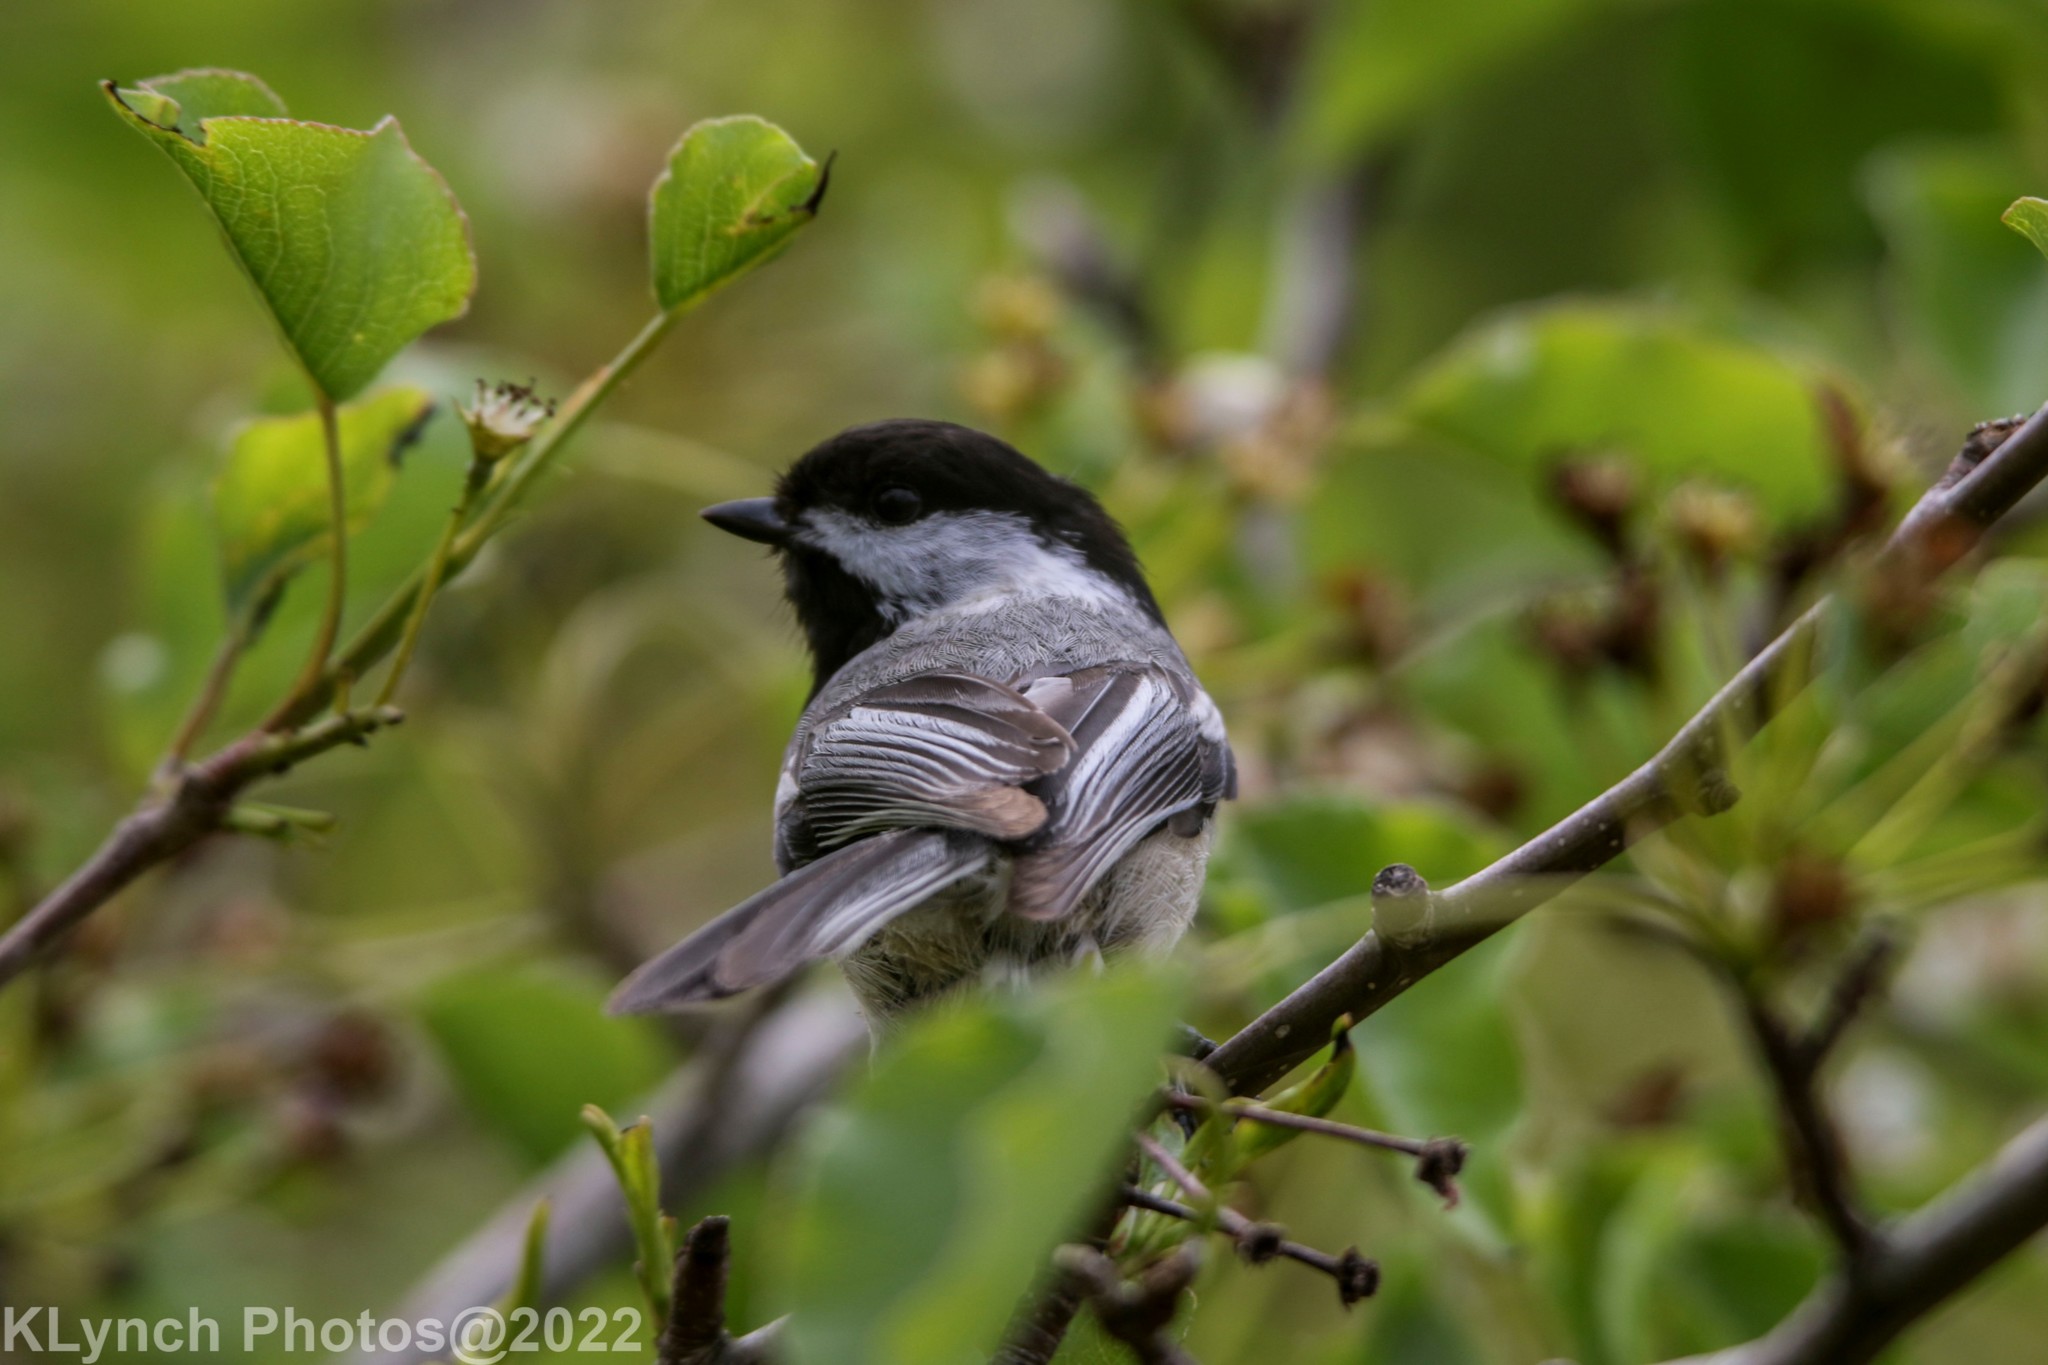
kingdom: Animalia
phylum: Chordata
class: Aves
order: Passeriformes
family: Paridae
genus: Poecile
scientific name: Poecile atricapillus
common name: Black-capped chickadee
